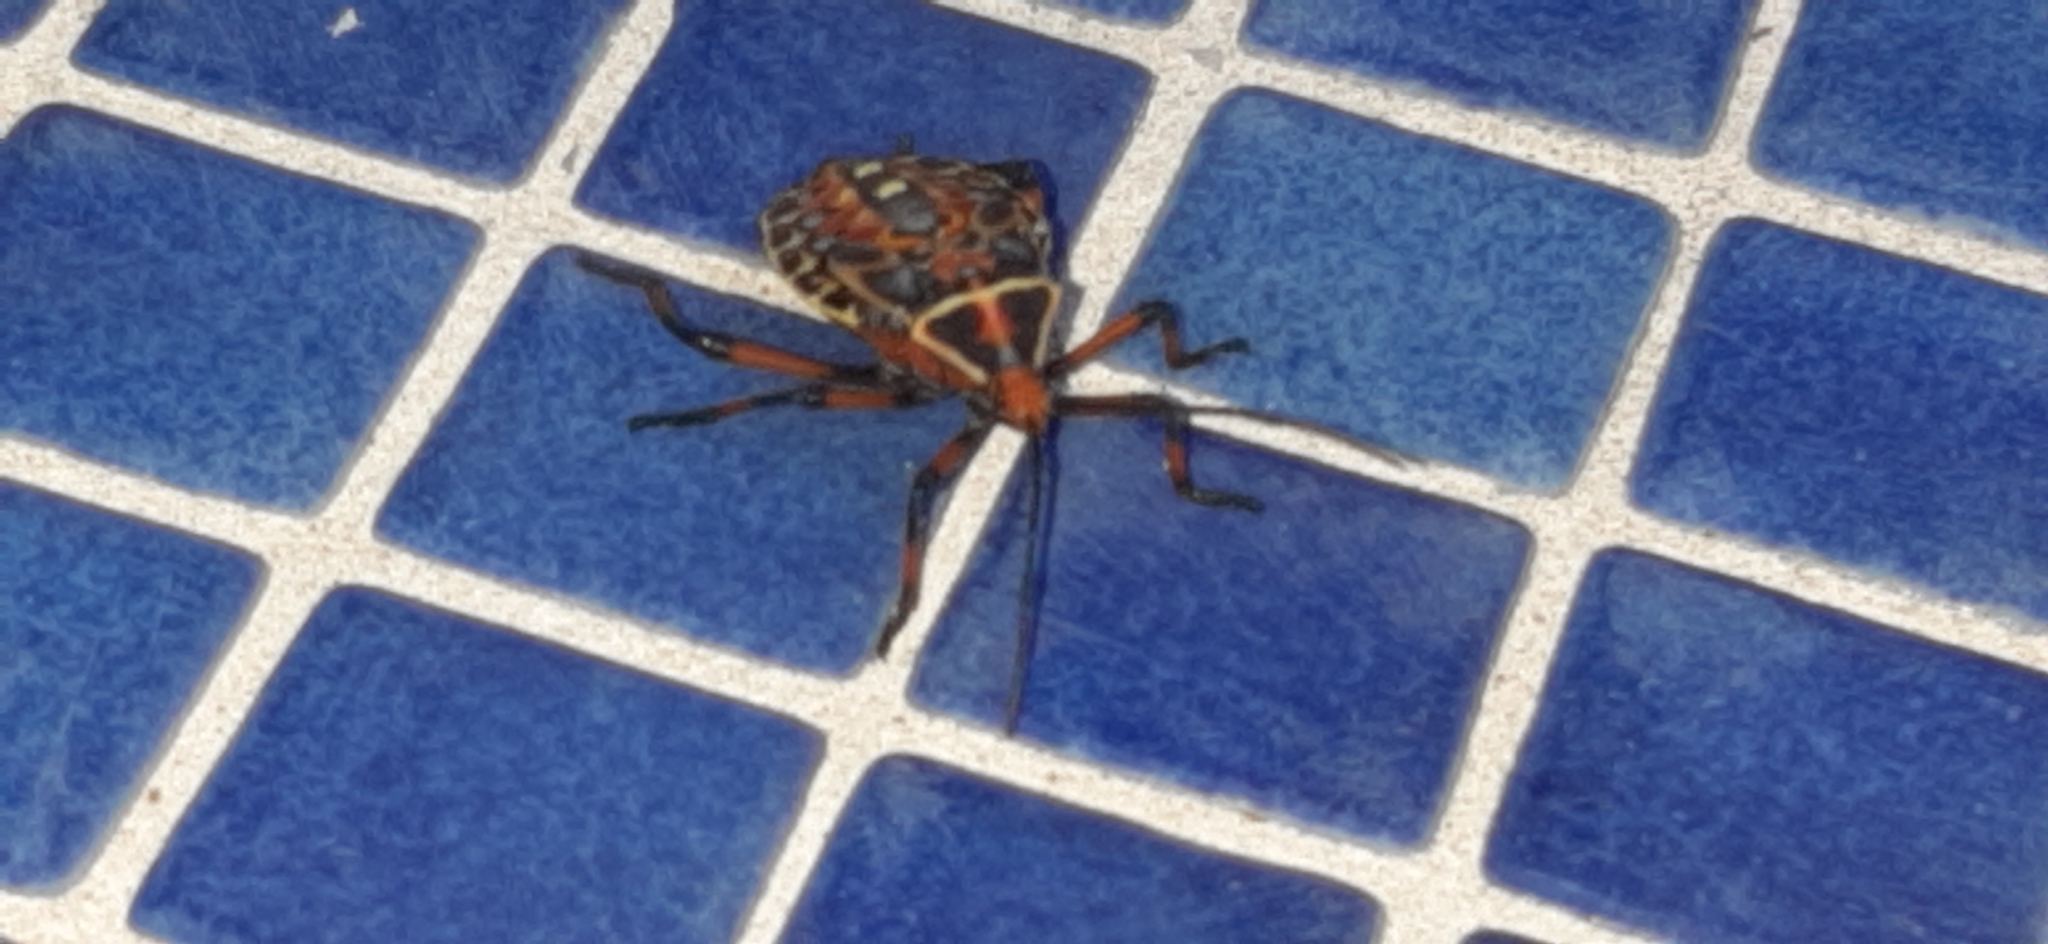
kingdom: Animalia
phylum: Arthropoda
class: Insecta
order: Hemiptera
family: Coreidae
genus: Pachylis
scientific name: Pachylis nervosus
